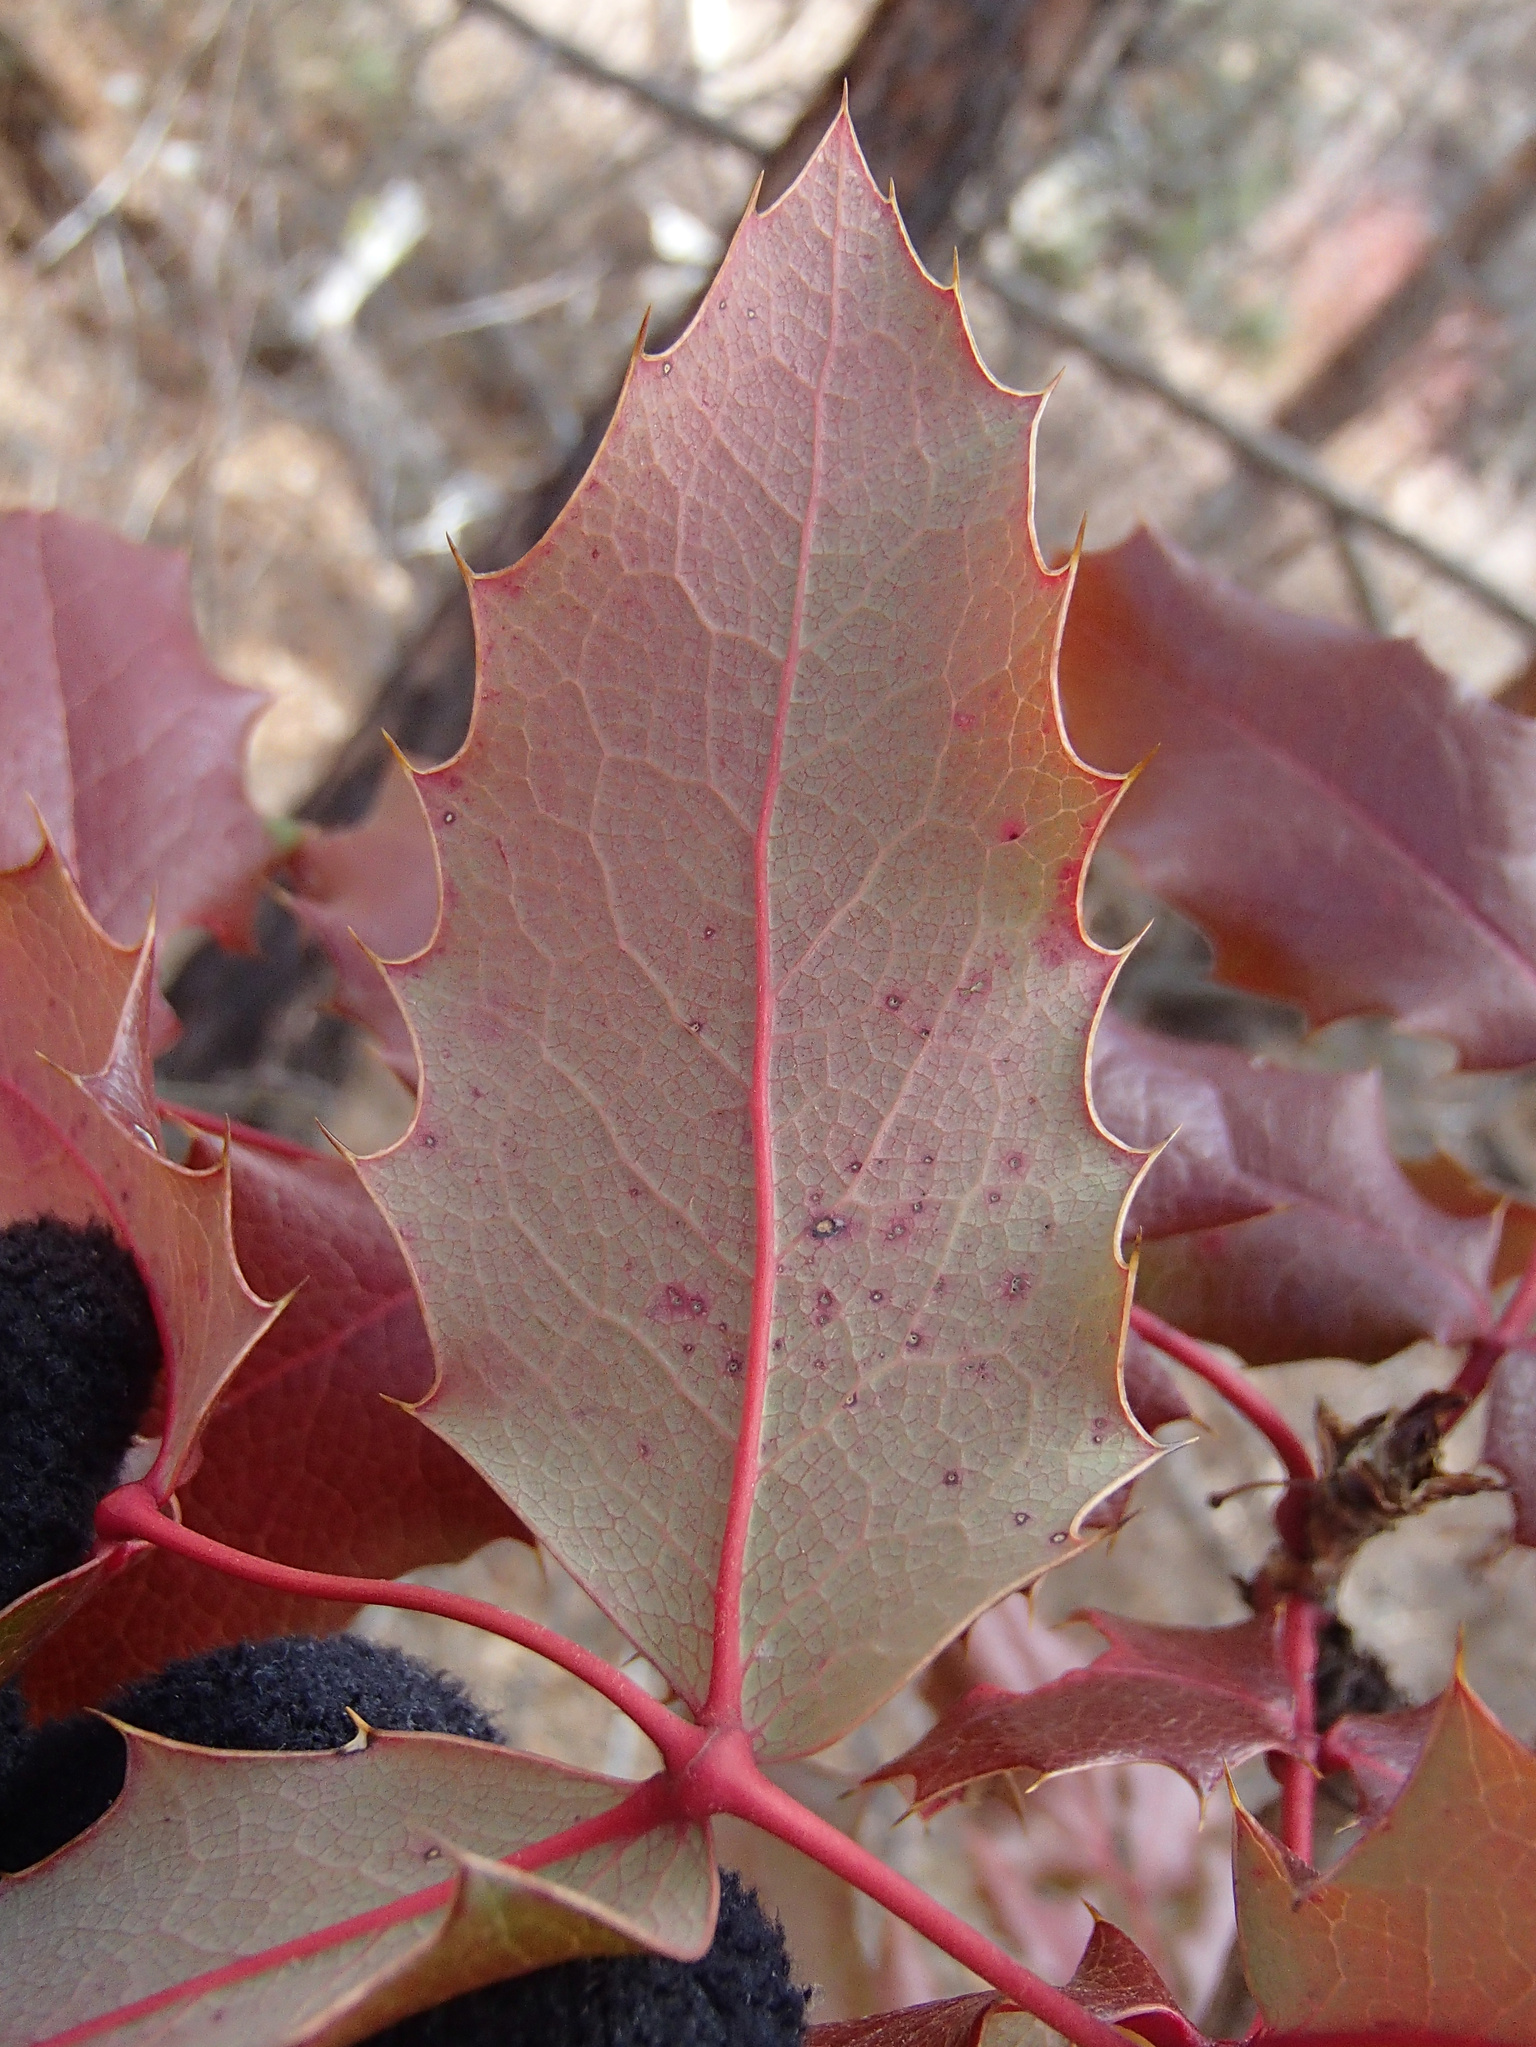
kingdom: Plantae
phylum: Tracheophyta
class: Magnoliopsida
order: Ranunculales
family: Berberidaceae
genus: Mahonia
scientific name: Mahonia aquifolium
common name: Oregon-grape
